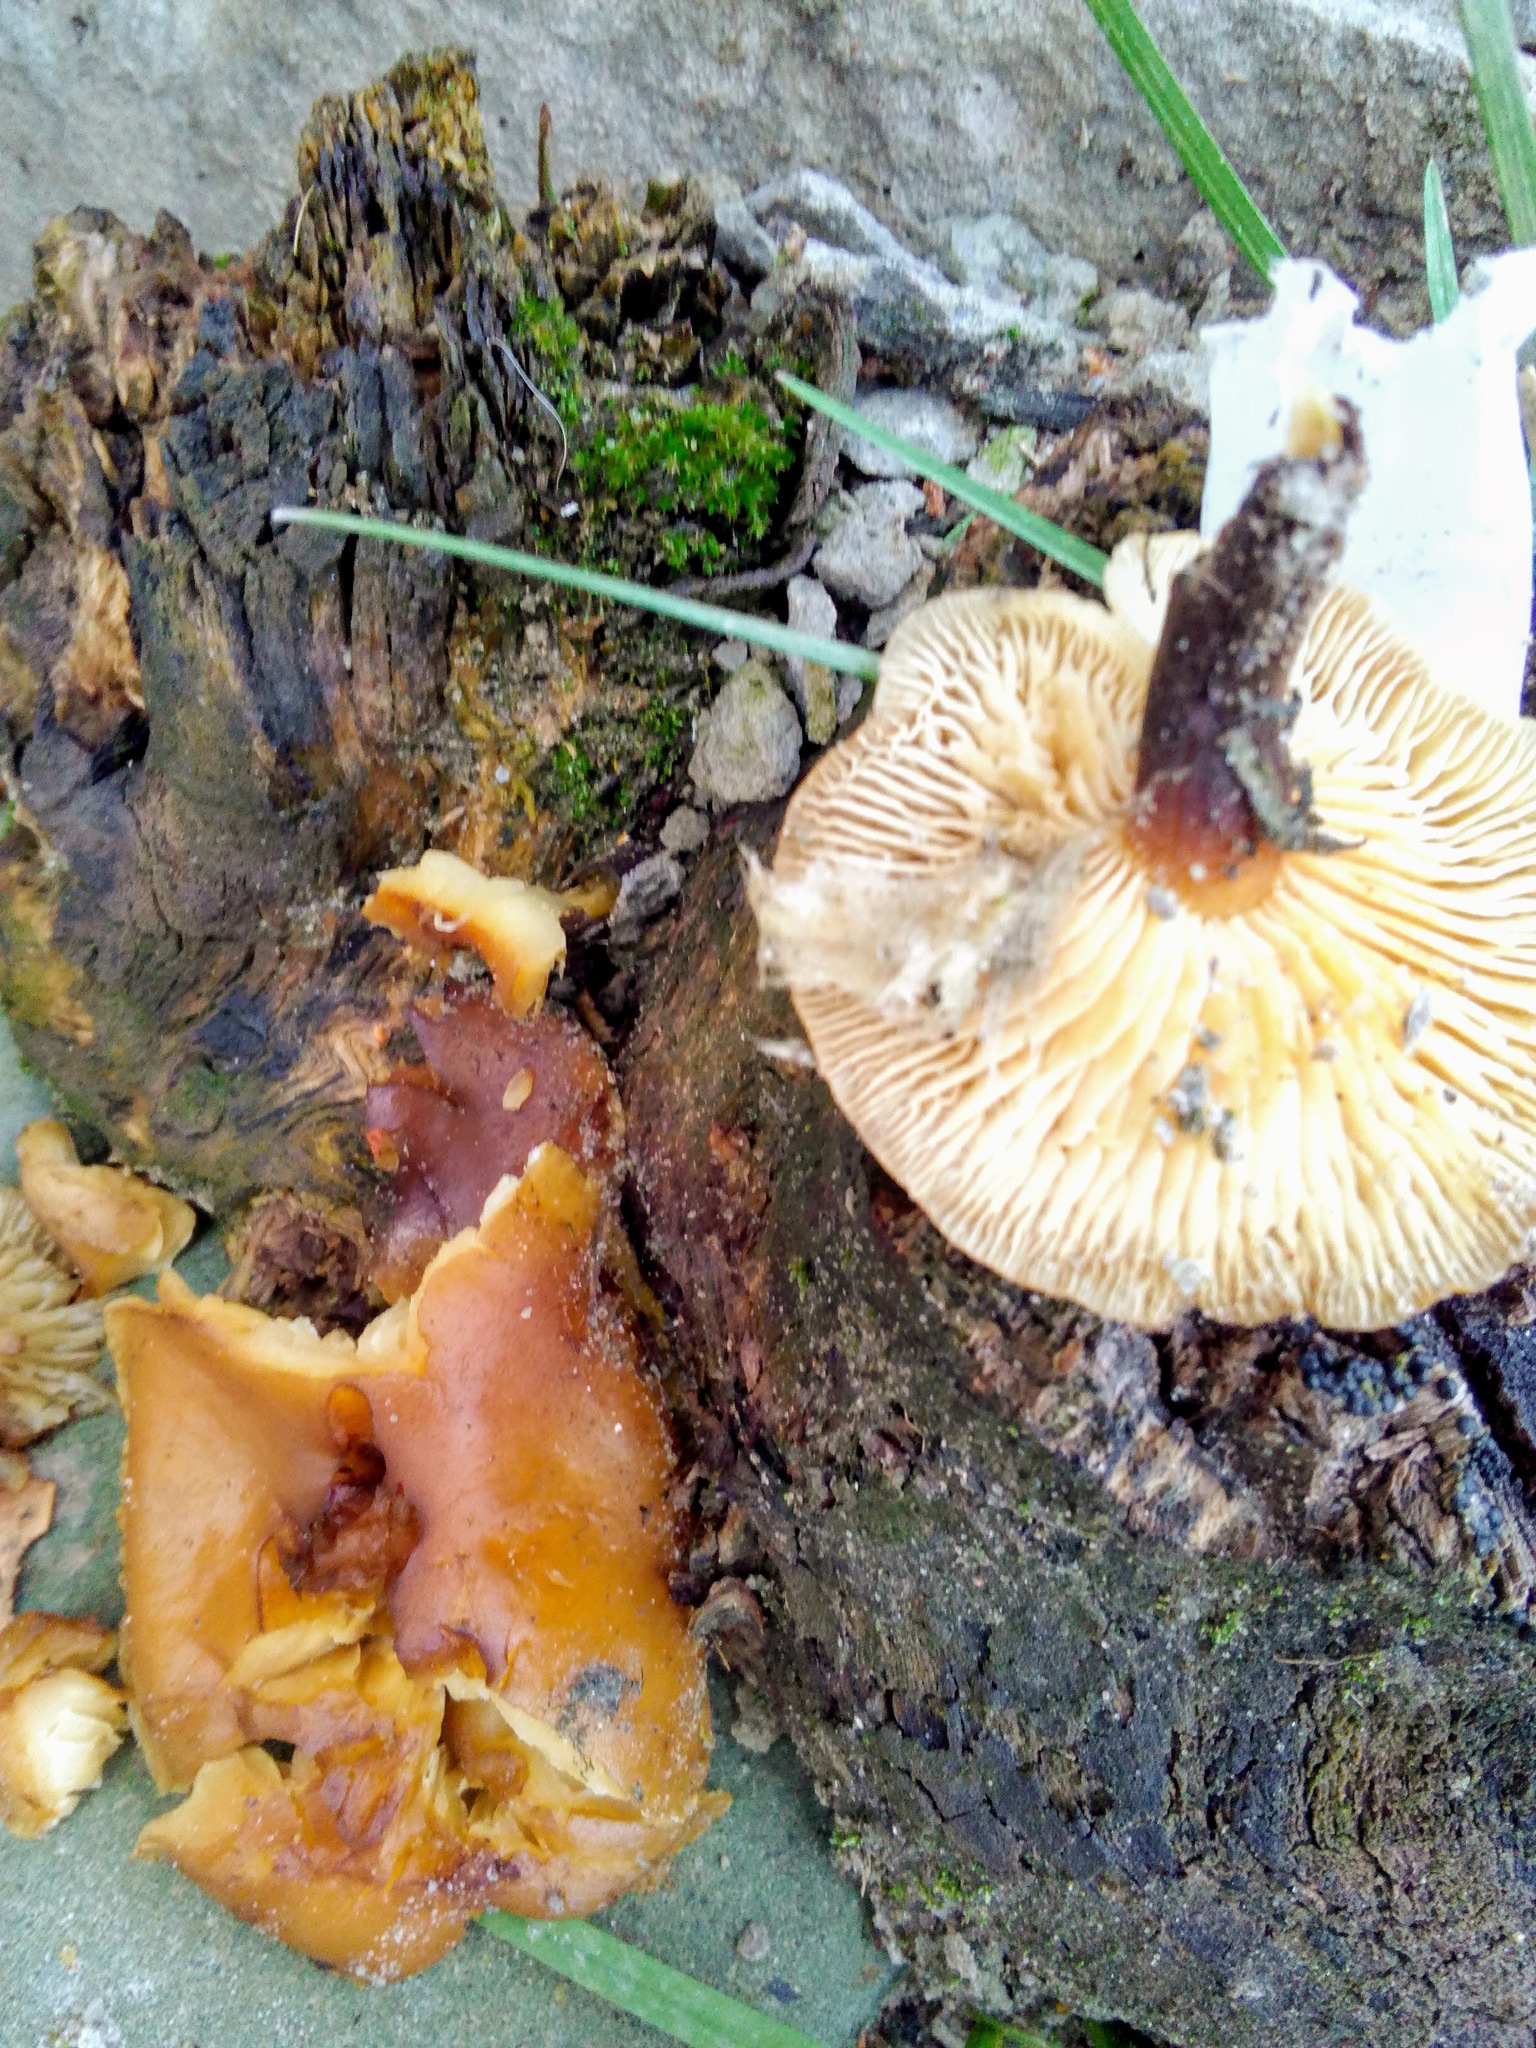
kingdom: Fungi
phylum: Basidiomycota
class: Agaricomycetes
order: Agaricales
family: Physalacriaceae
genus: Flammulina
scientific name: Flammulina velutipes
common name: Velvet shank
